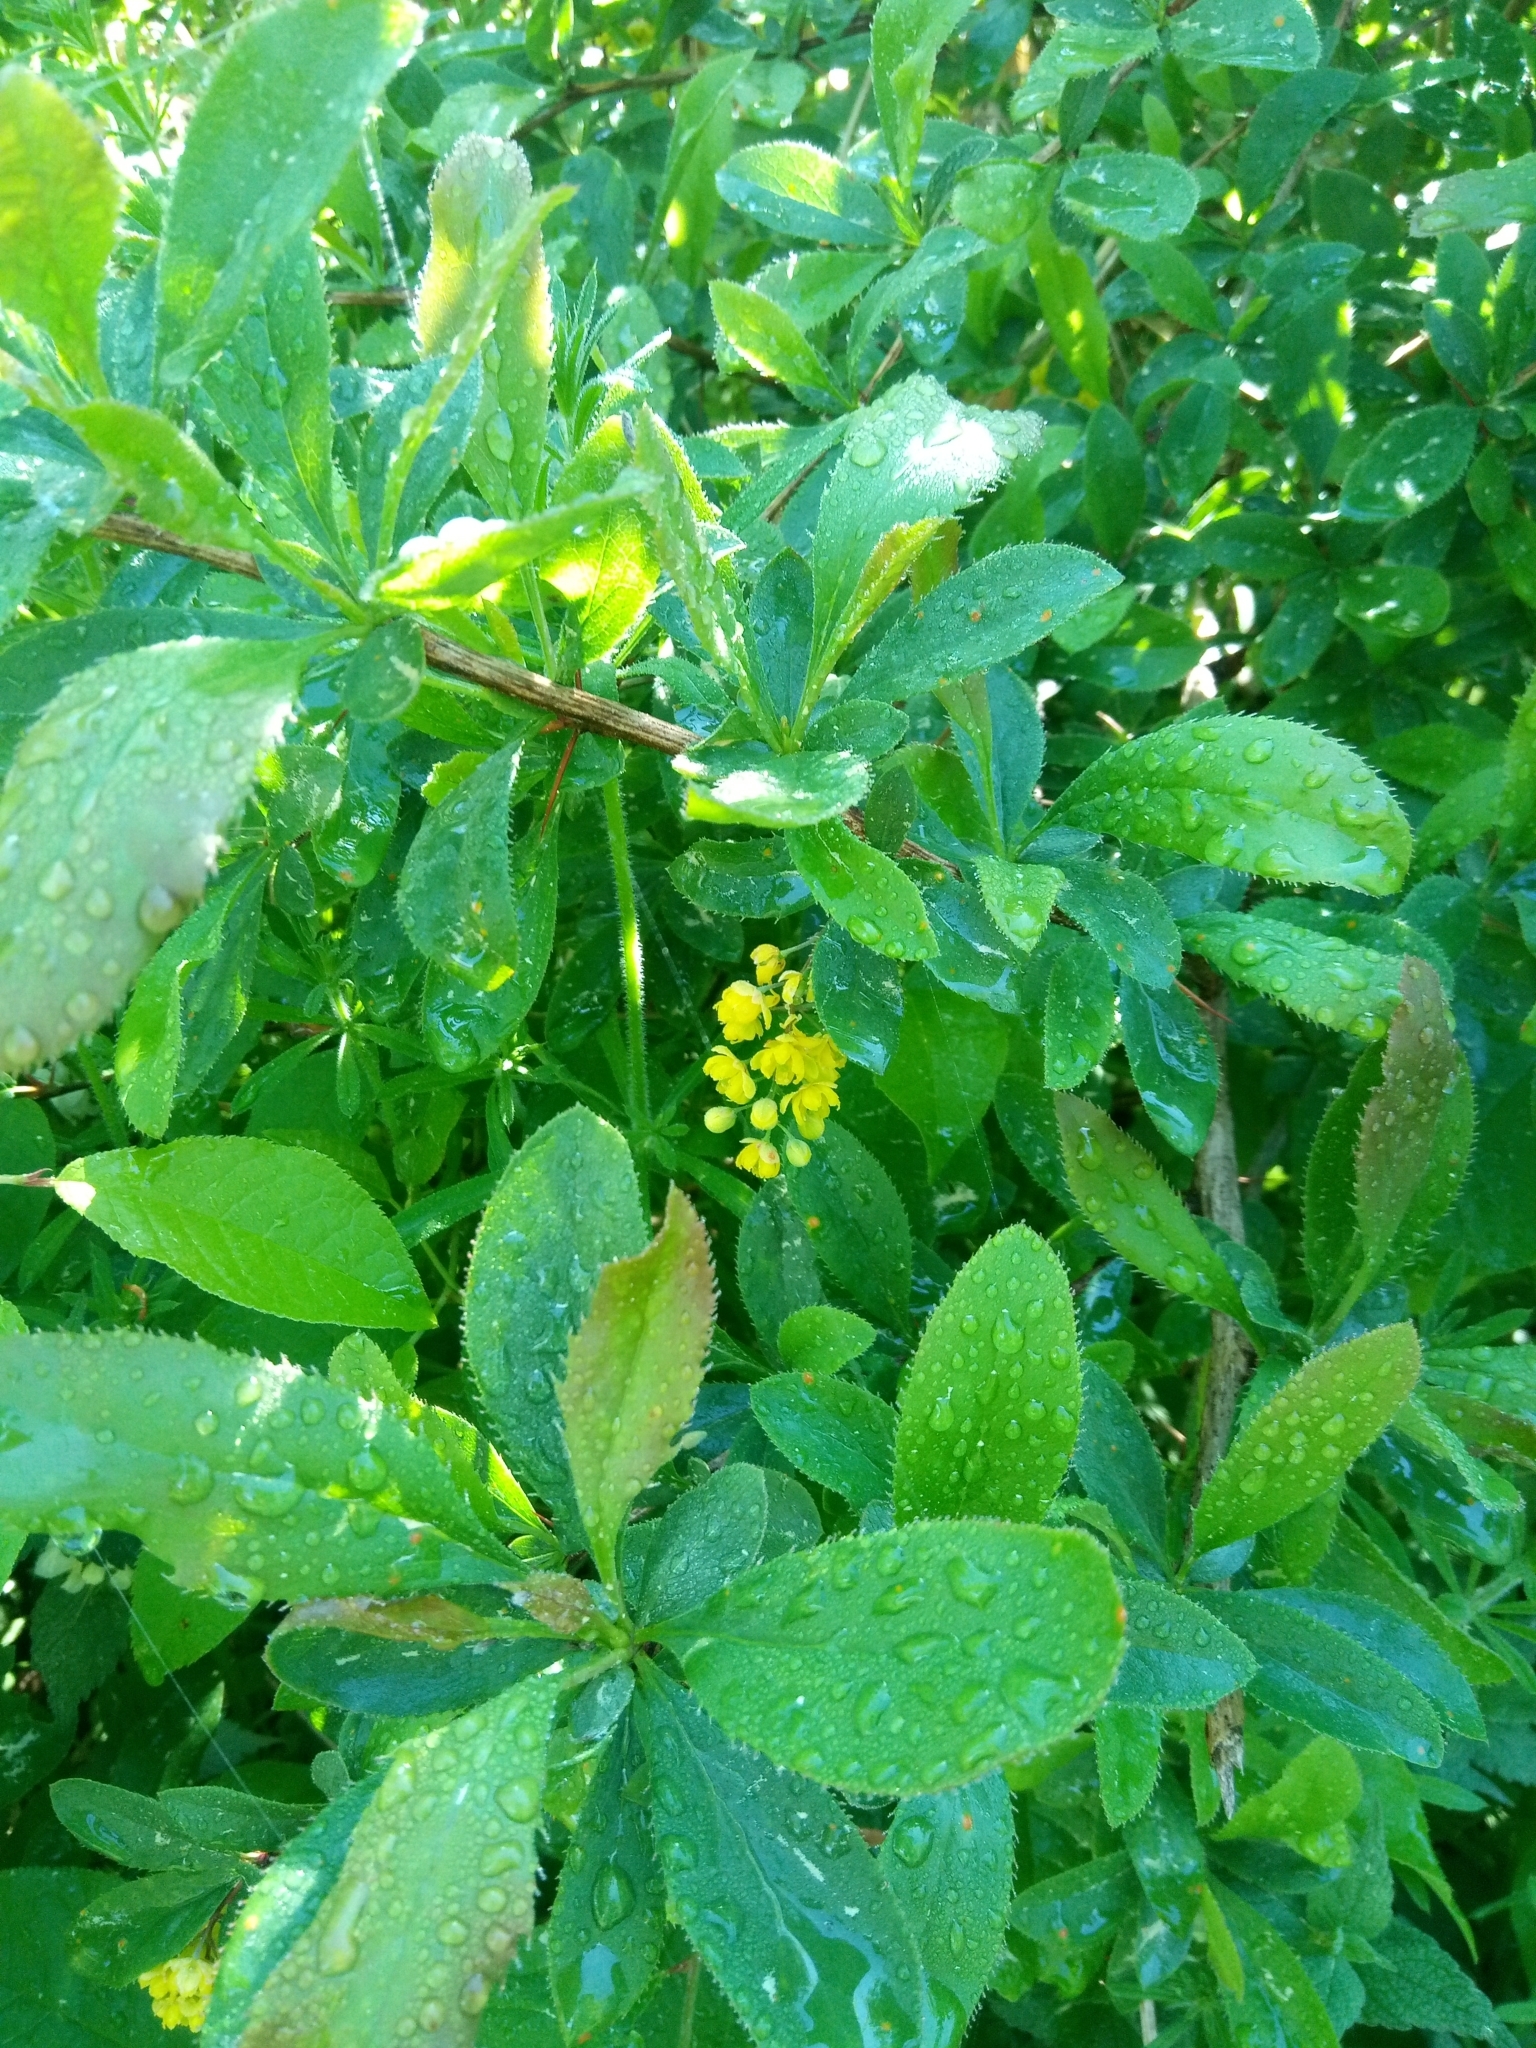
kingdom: Plantae
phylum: Tracheophyta
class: Magnoliopsida
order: Ranunculales
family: Berberidaceae
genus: Berberis
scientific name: Berberis vulgaris
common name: Barberry
